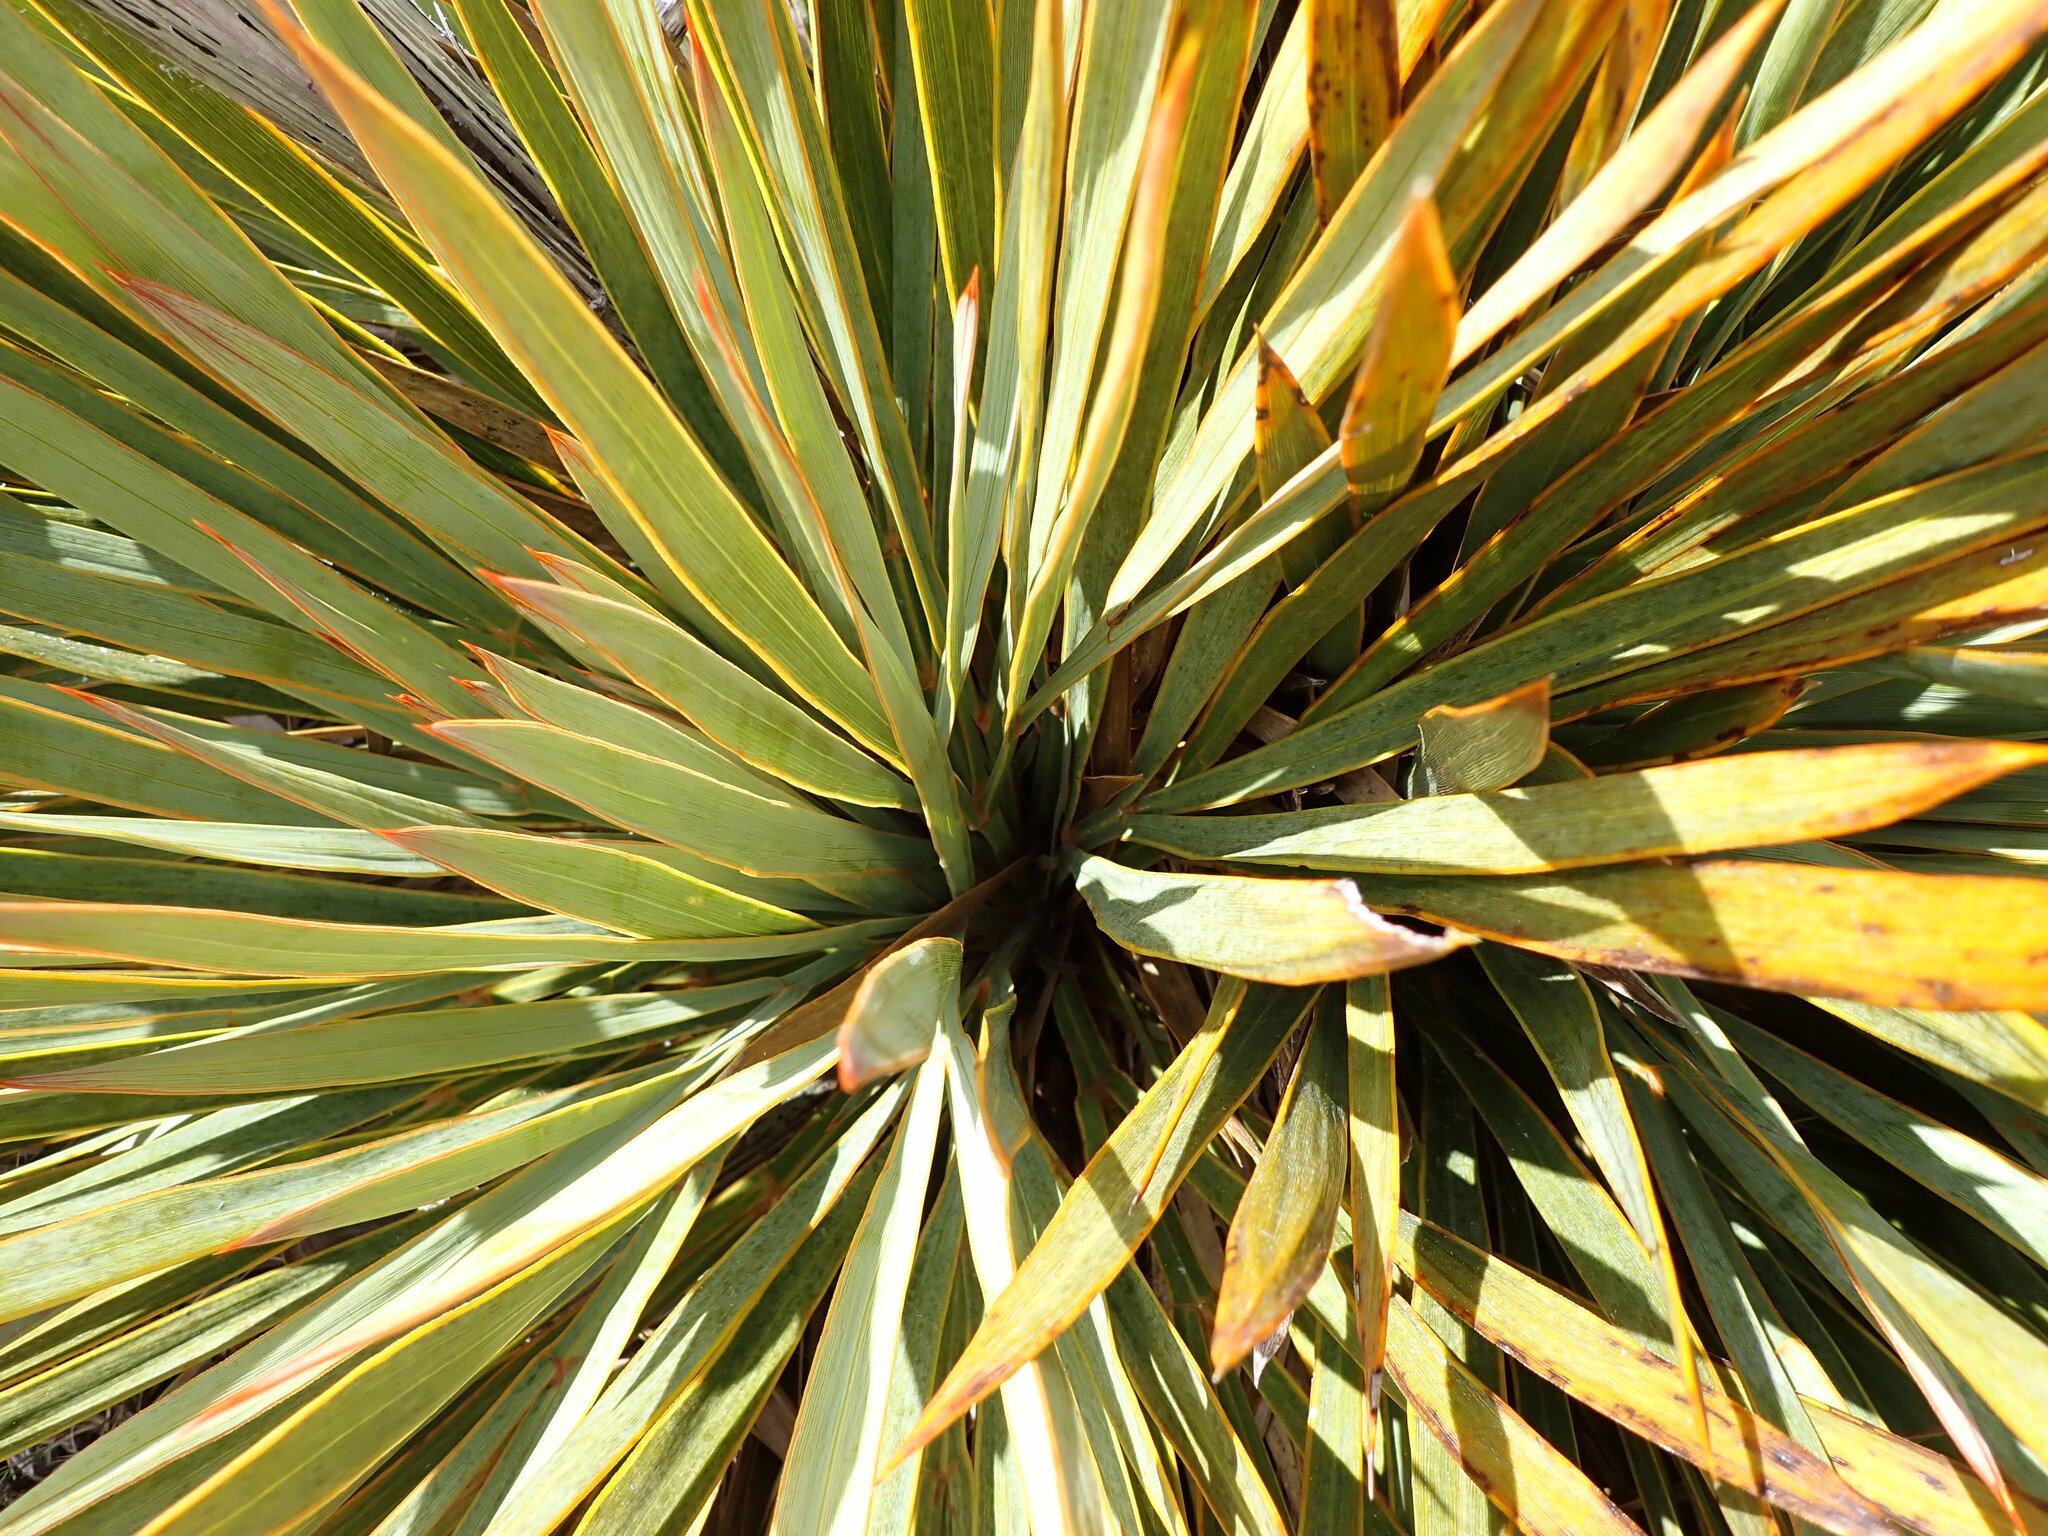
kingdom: Plantae
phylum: Tracheophyta
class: Magnoliopsida
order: Apiales
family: Apiaceae
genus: Aciphylla
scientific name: Aciphylla ferox
